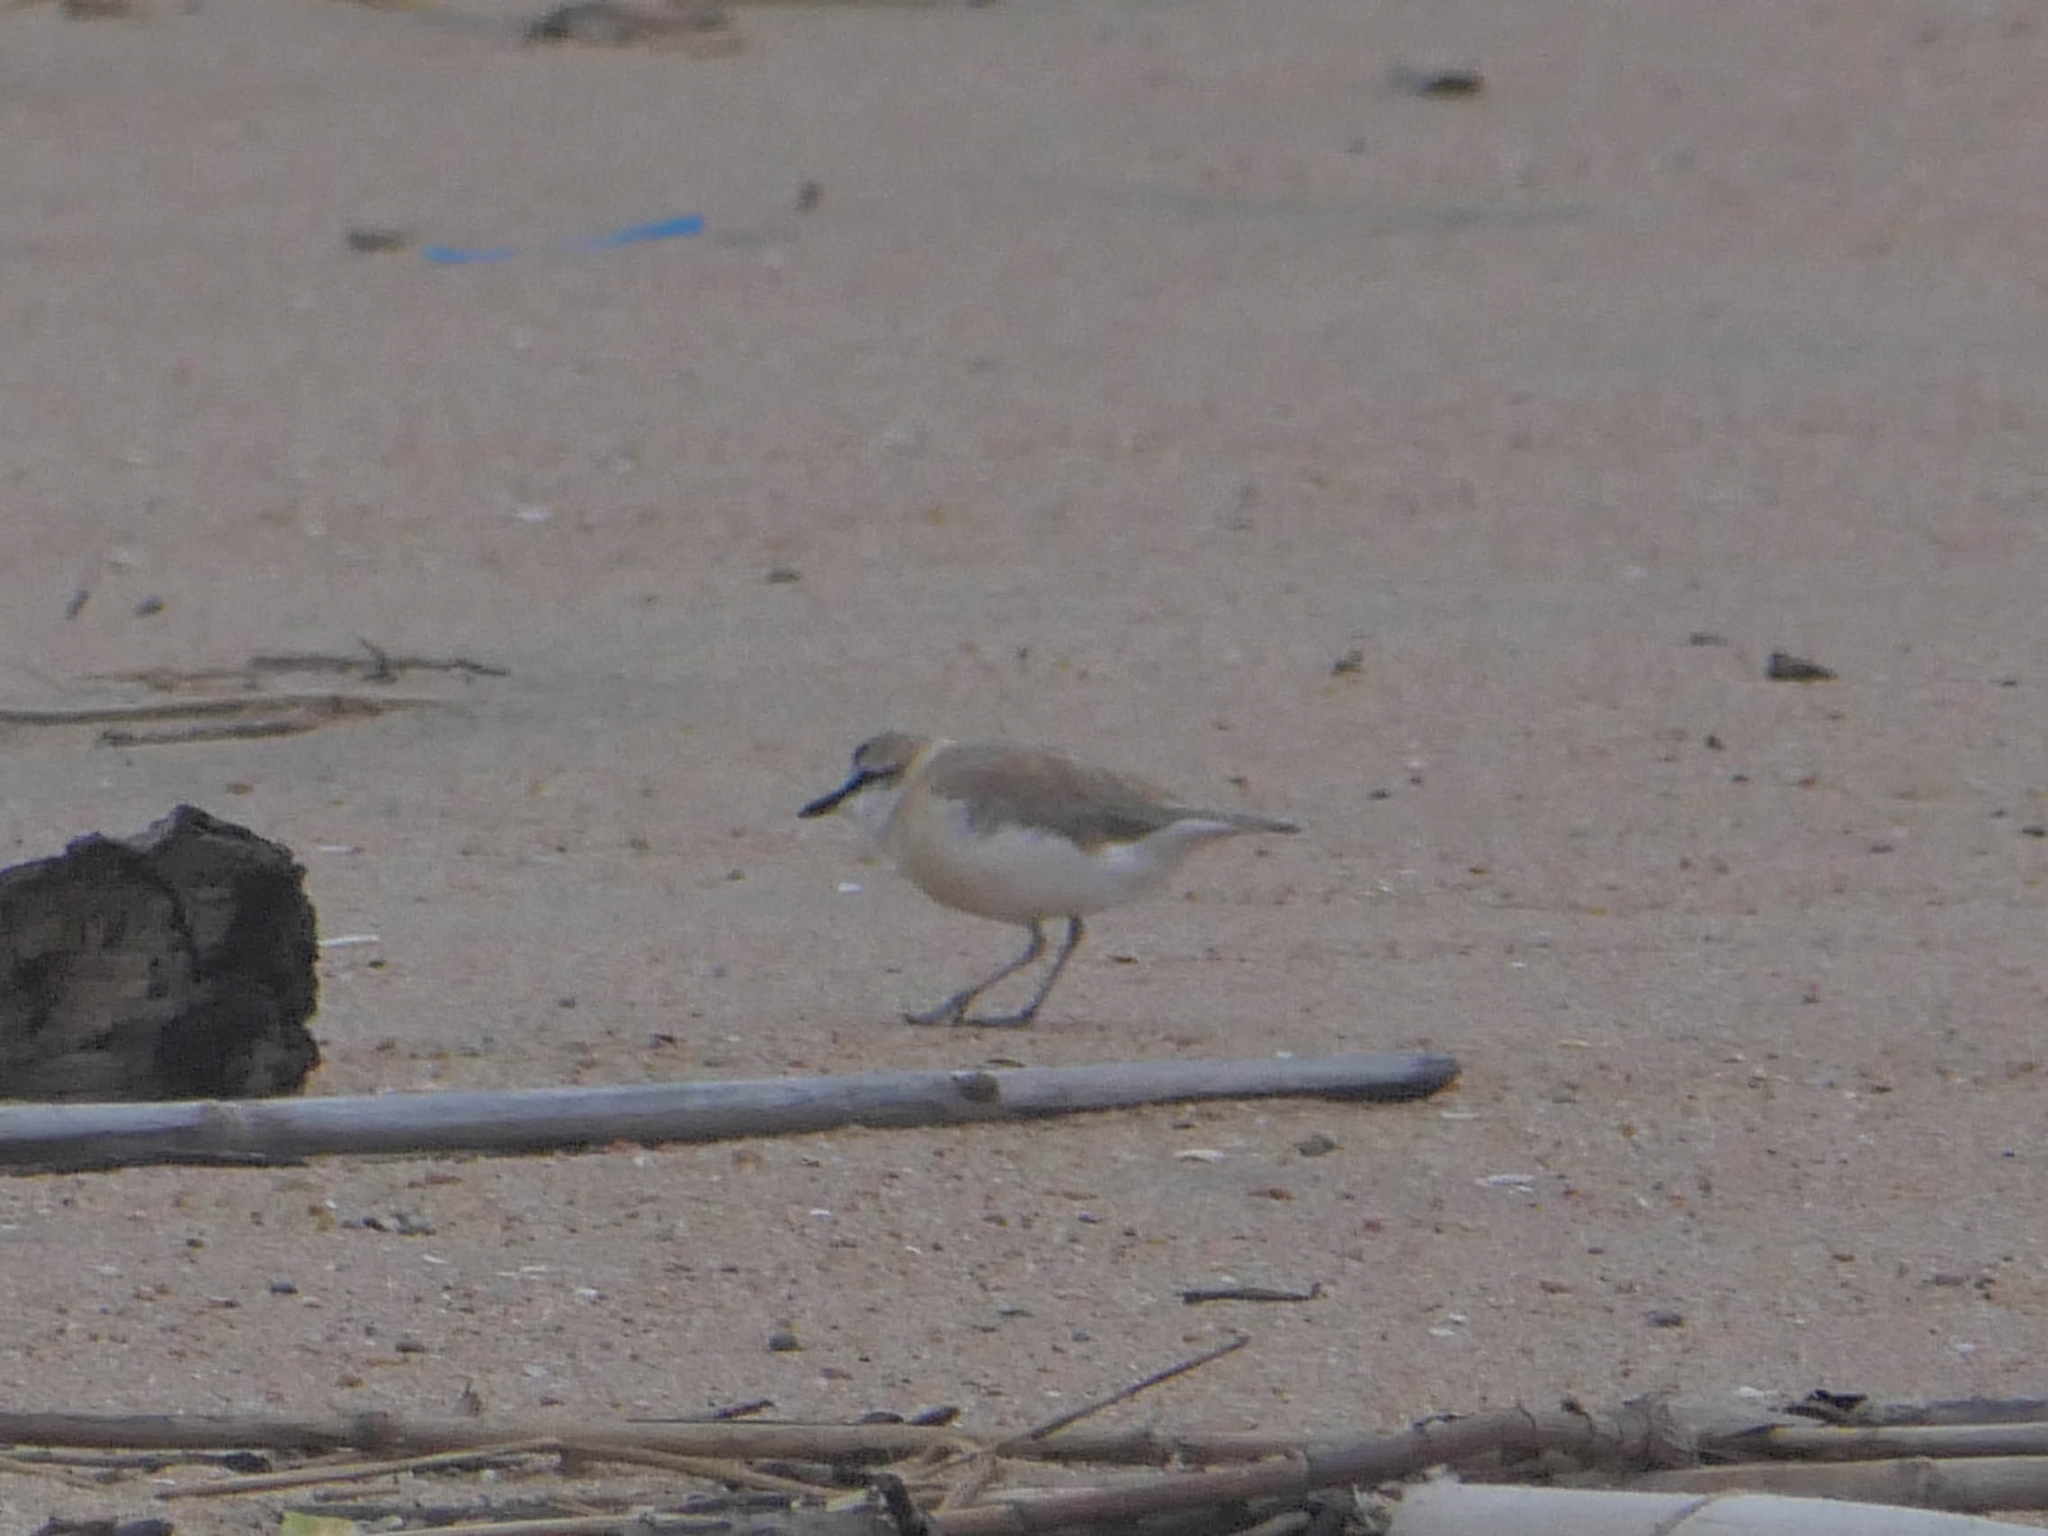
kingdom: Animalia
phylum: Chordata
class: Aves
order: Charadriiformes
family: Charadriidae
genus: Anarhynchus
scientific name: Anarhynchus
